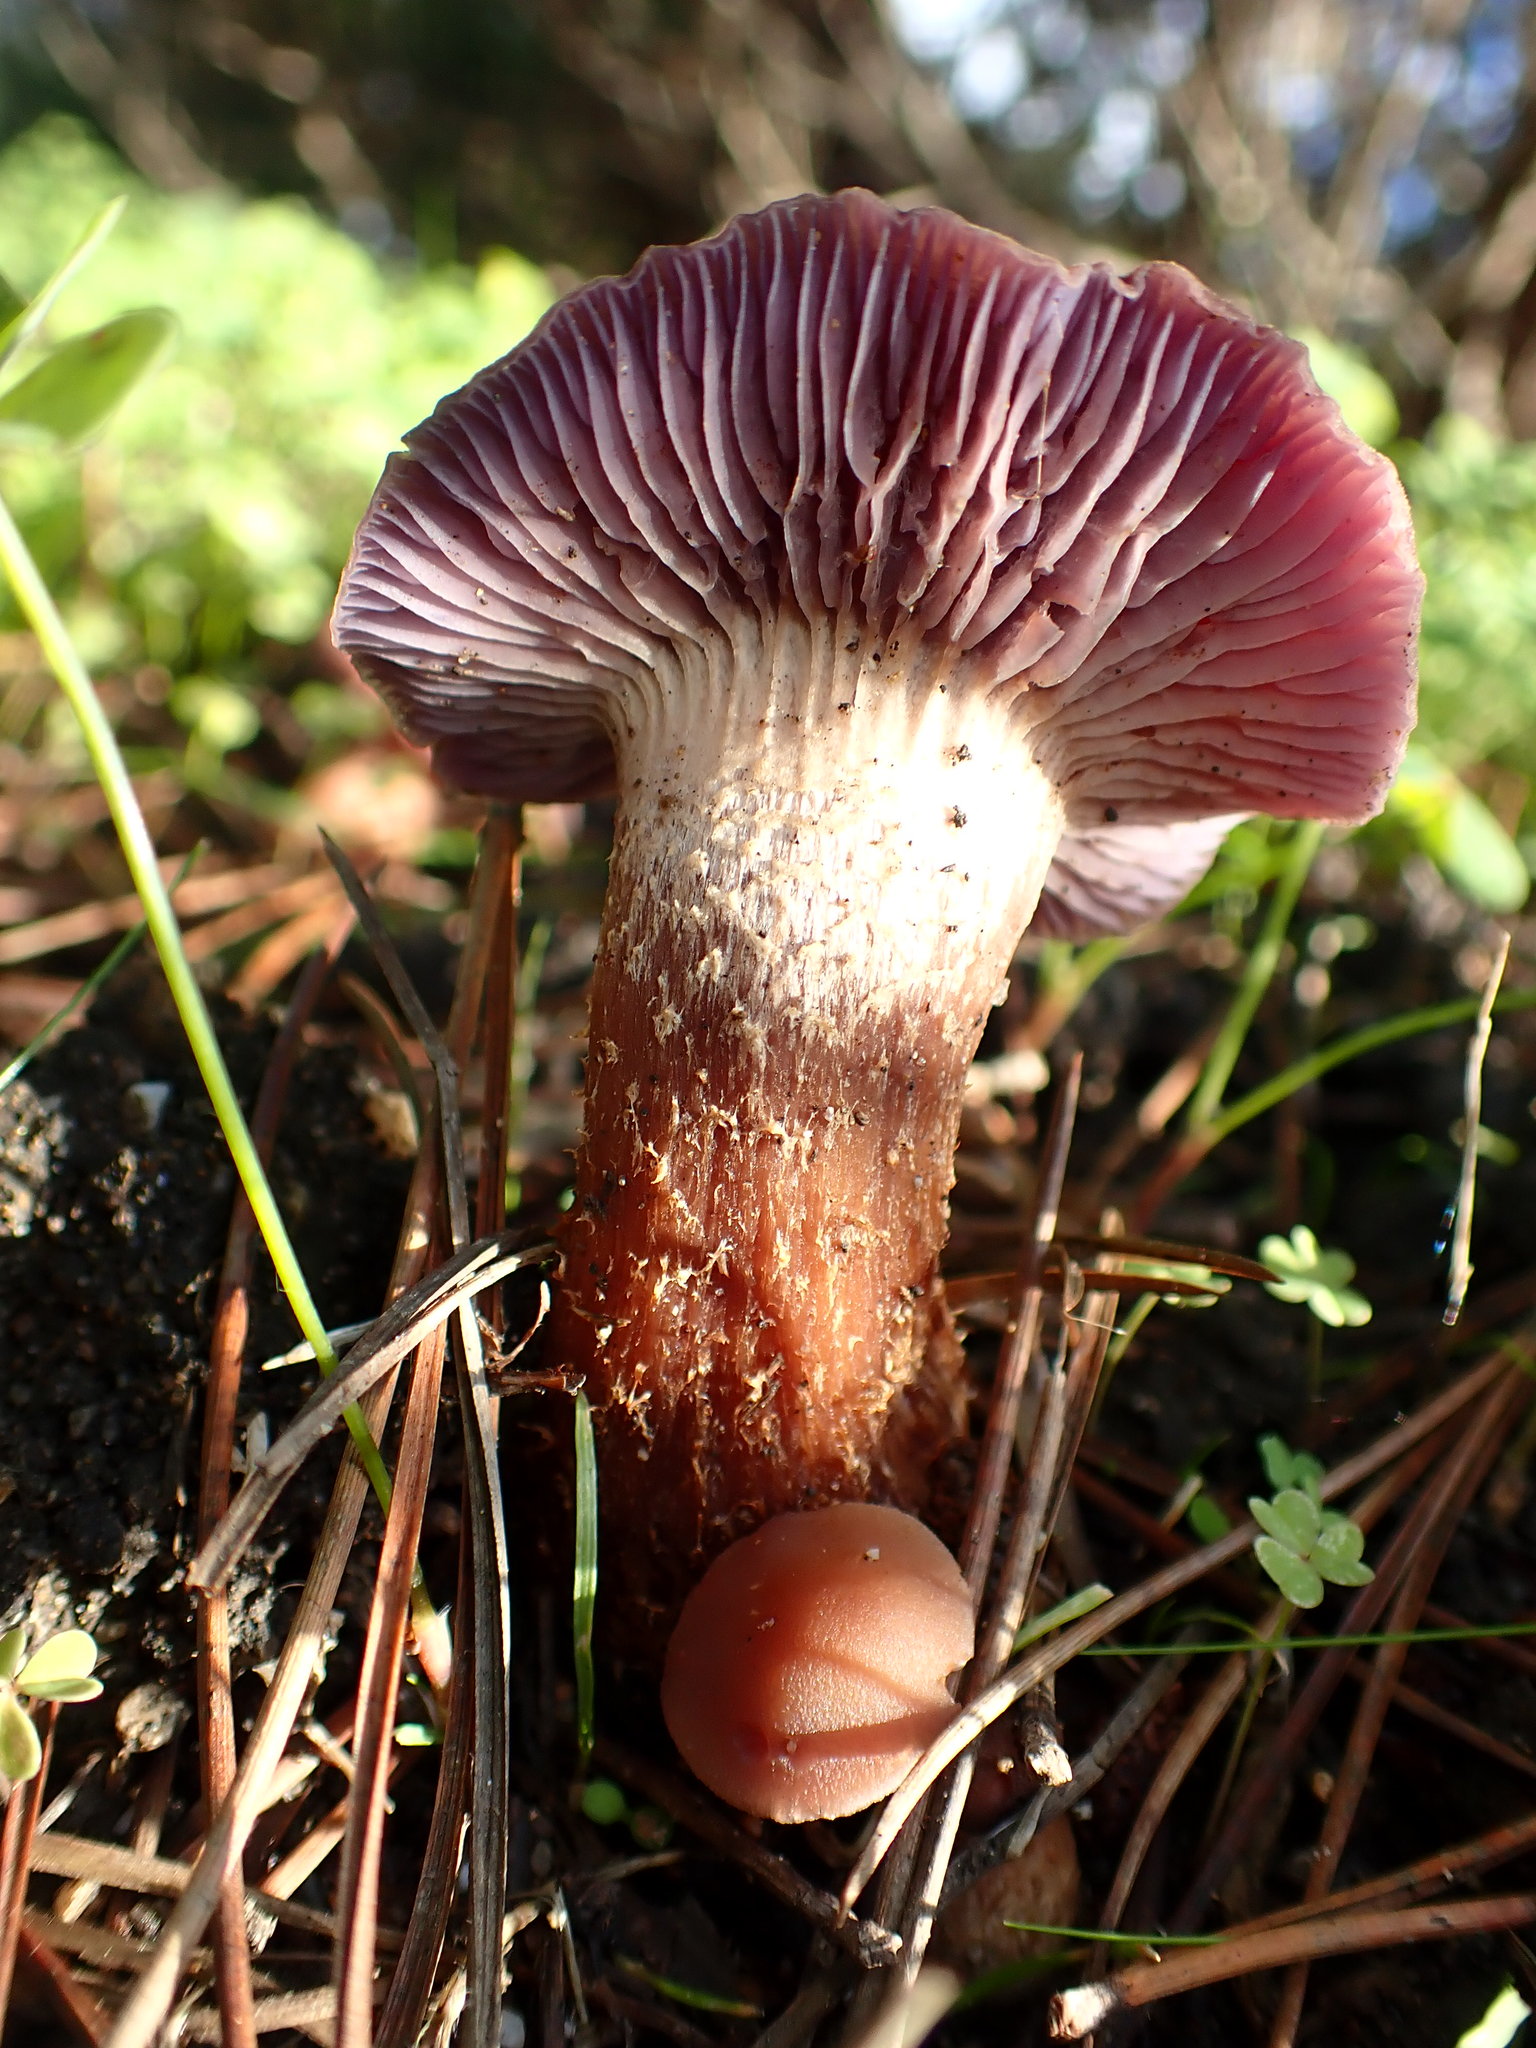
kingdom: Fungi
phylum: Basidiomycota
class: Agaricomycetes
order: Agaricales
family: Hydnangiaceae
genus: Laccaria
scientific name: Laccaria amethysteo-occidentalis
